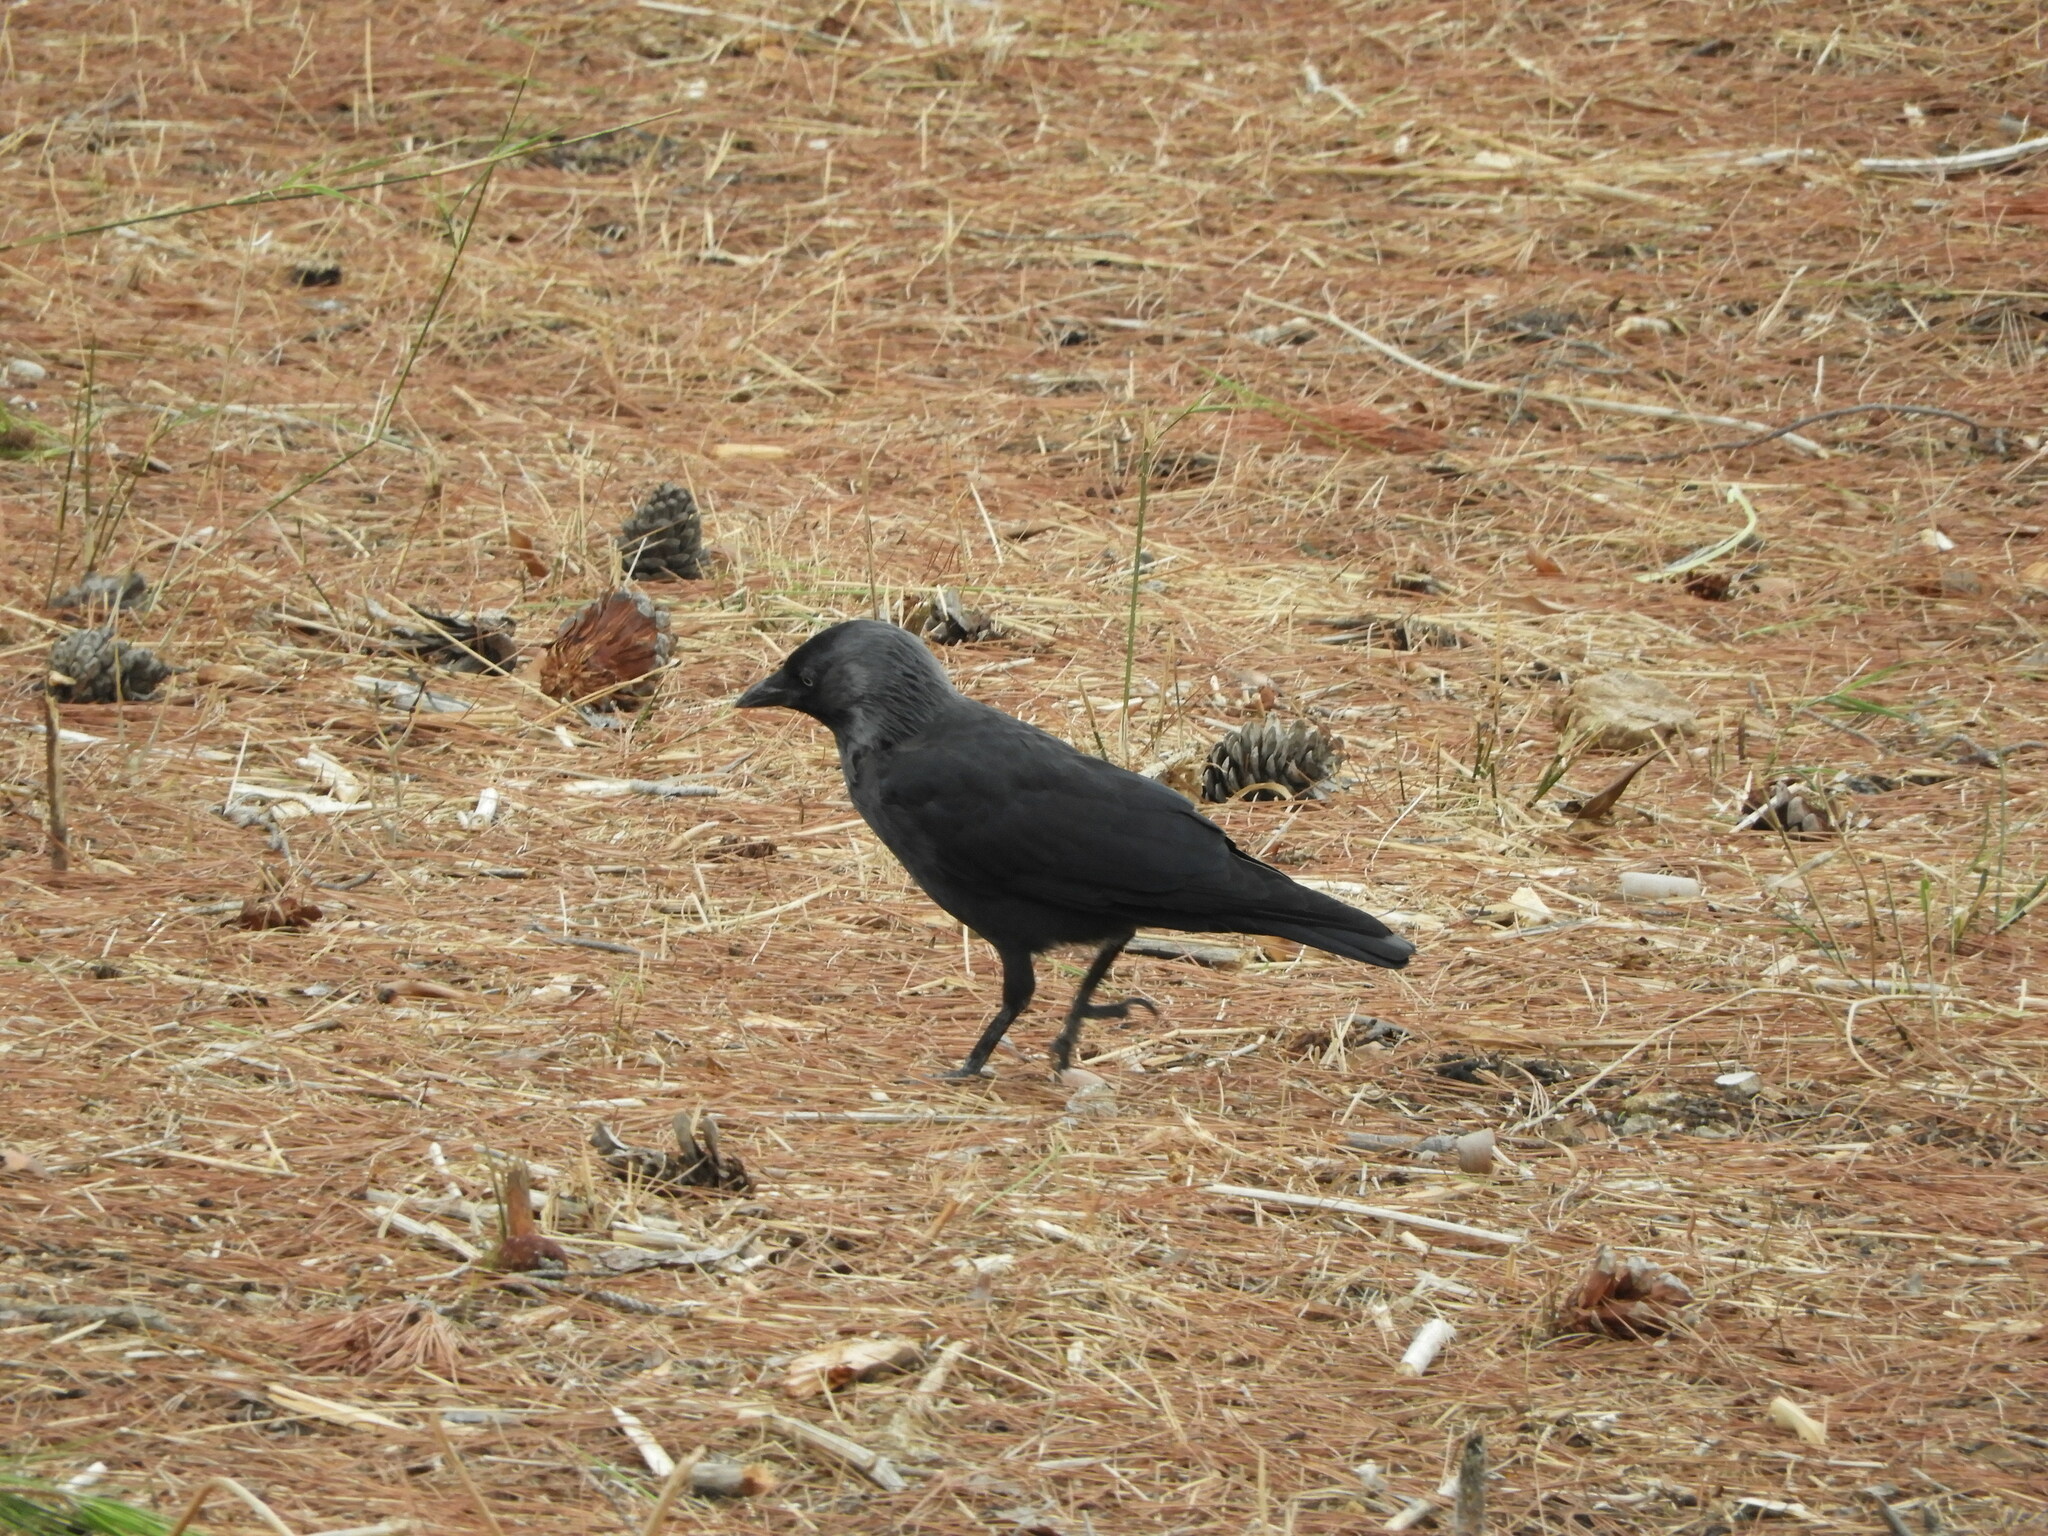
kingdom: Animalia
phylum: Chordata
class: Aves
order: Passeriformes
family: Corvidae
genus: Coloeus
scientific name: Coloeus monedula
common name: Western jackdaw
